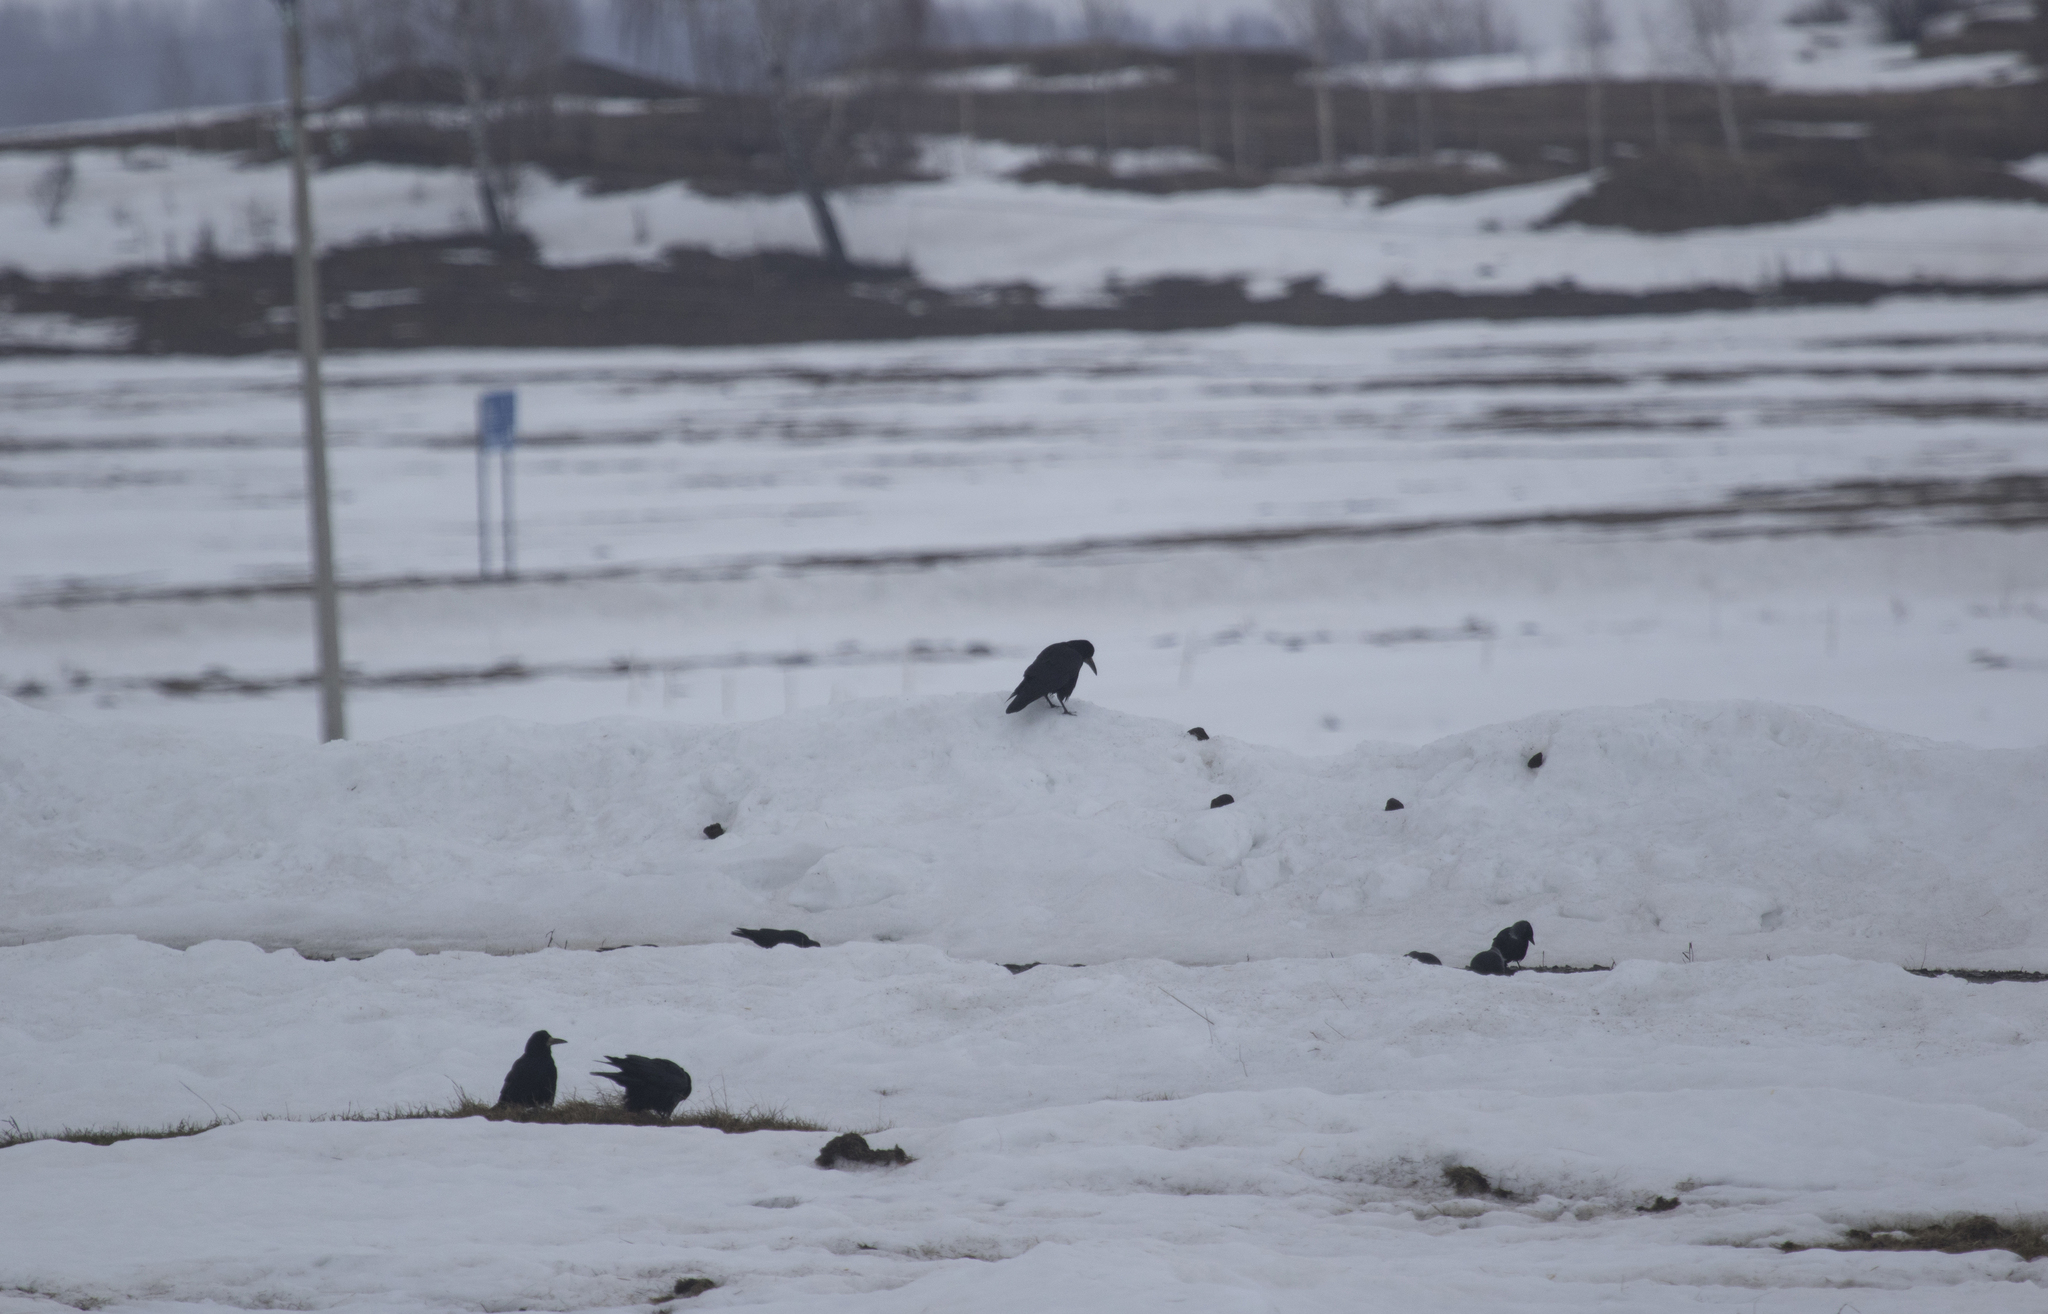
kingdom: Animalia
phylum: Chordata
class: Aves
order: Passeriformes
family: Corvidae
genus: Corvus
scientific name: Corvus frugilegus
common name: Rook
